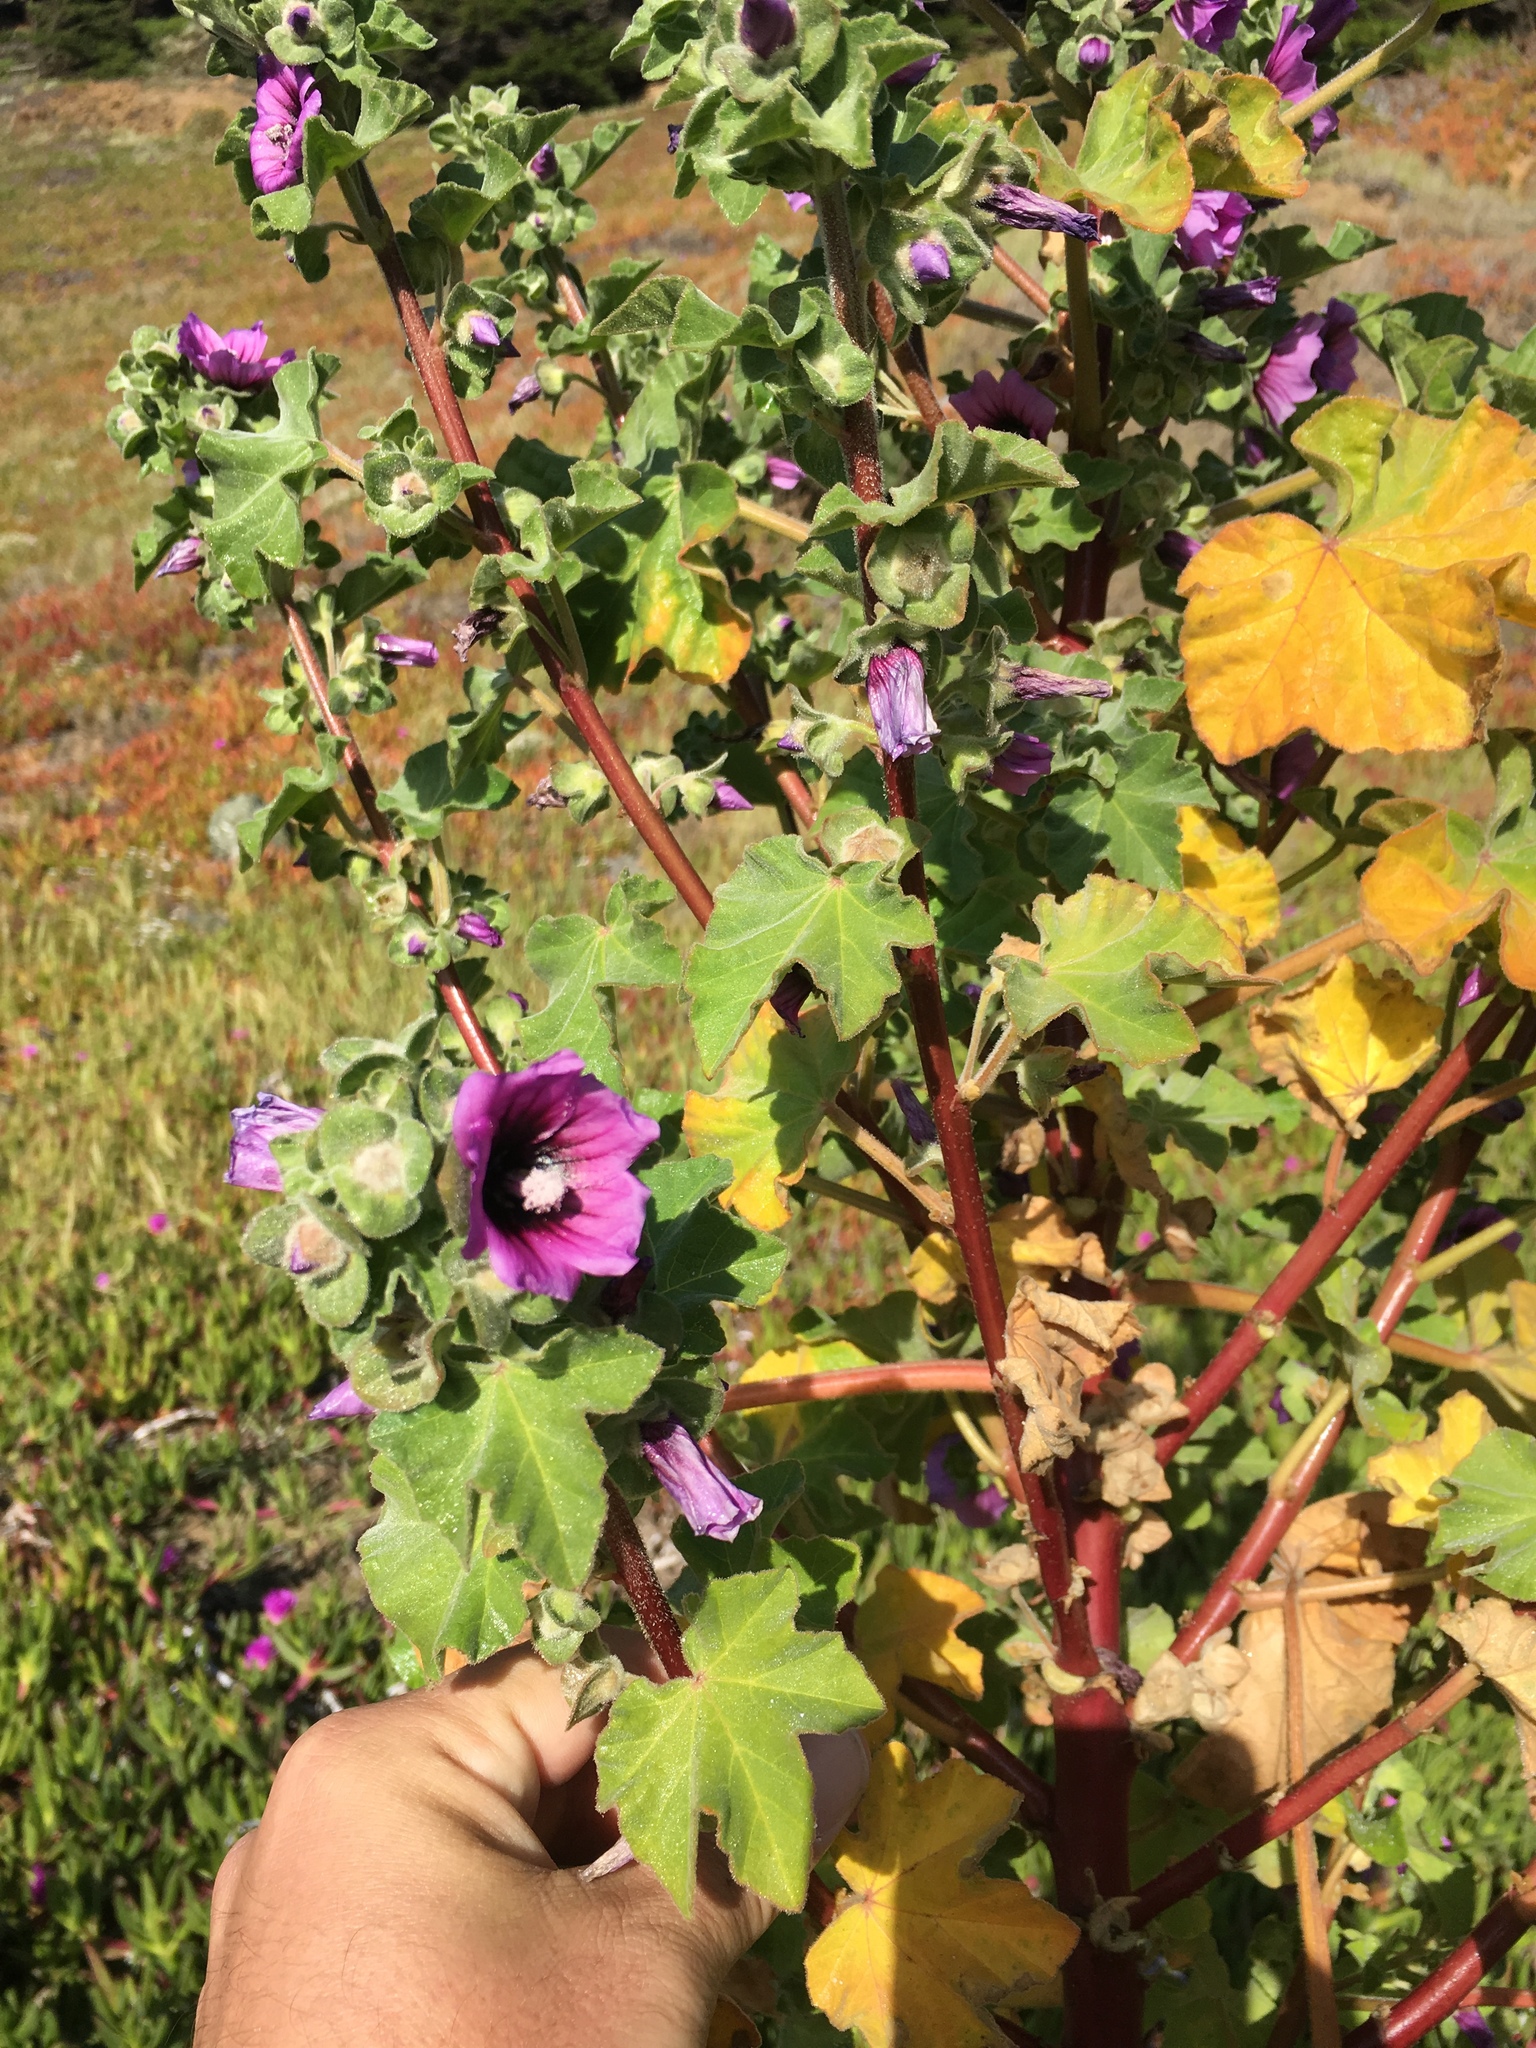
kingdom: Plantae
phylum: Tracheophyta
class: Magnoliopsida
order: Malvales
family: Malvaceae
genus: Malva
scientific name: Malva arborea
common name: Tree mallow
